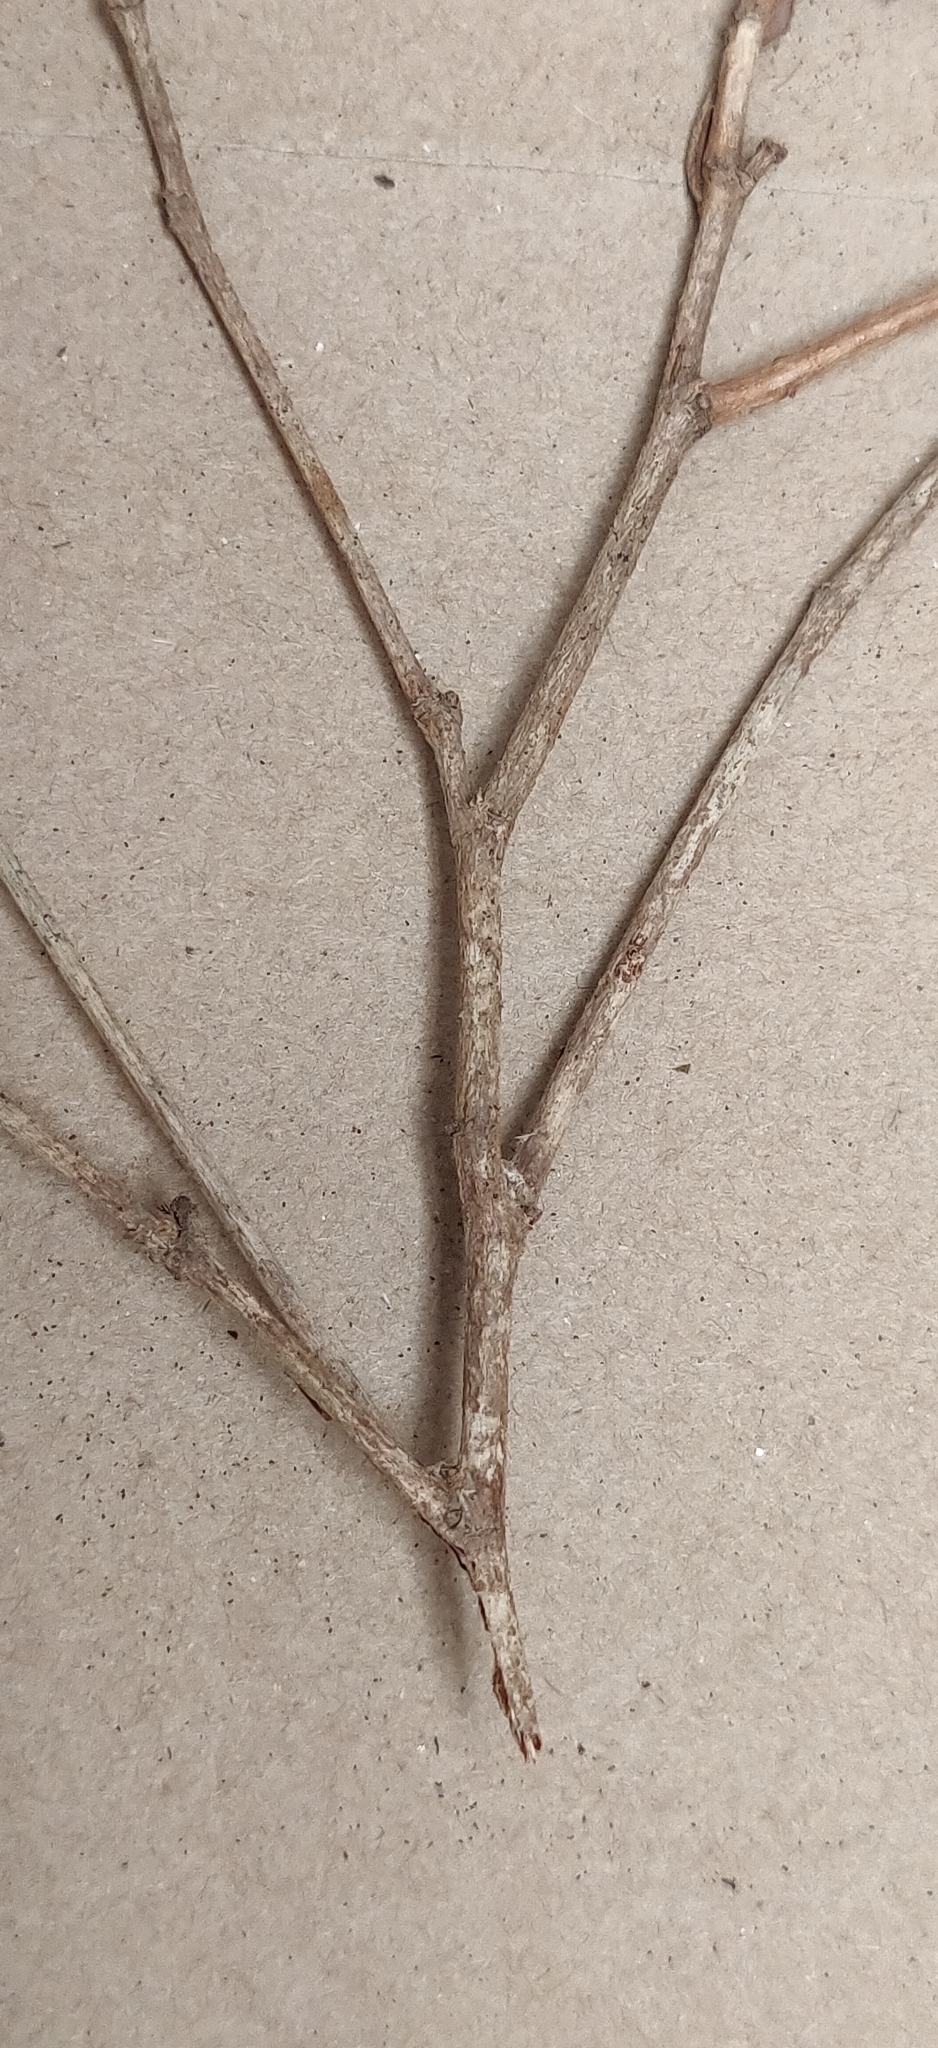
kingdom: Plantae
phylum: Tracheophyta
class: Magnoliopsida
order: Malpighiales
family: Euphorbiaceae
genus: Tritaxis
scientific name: Tritaxis beddomei
